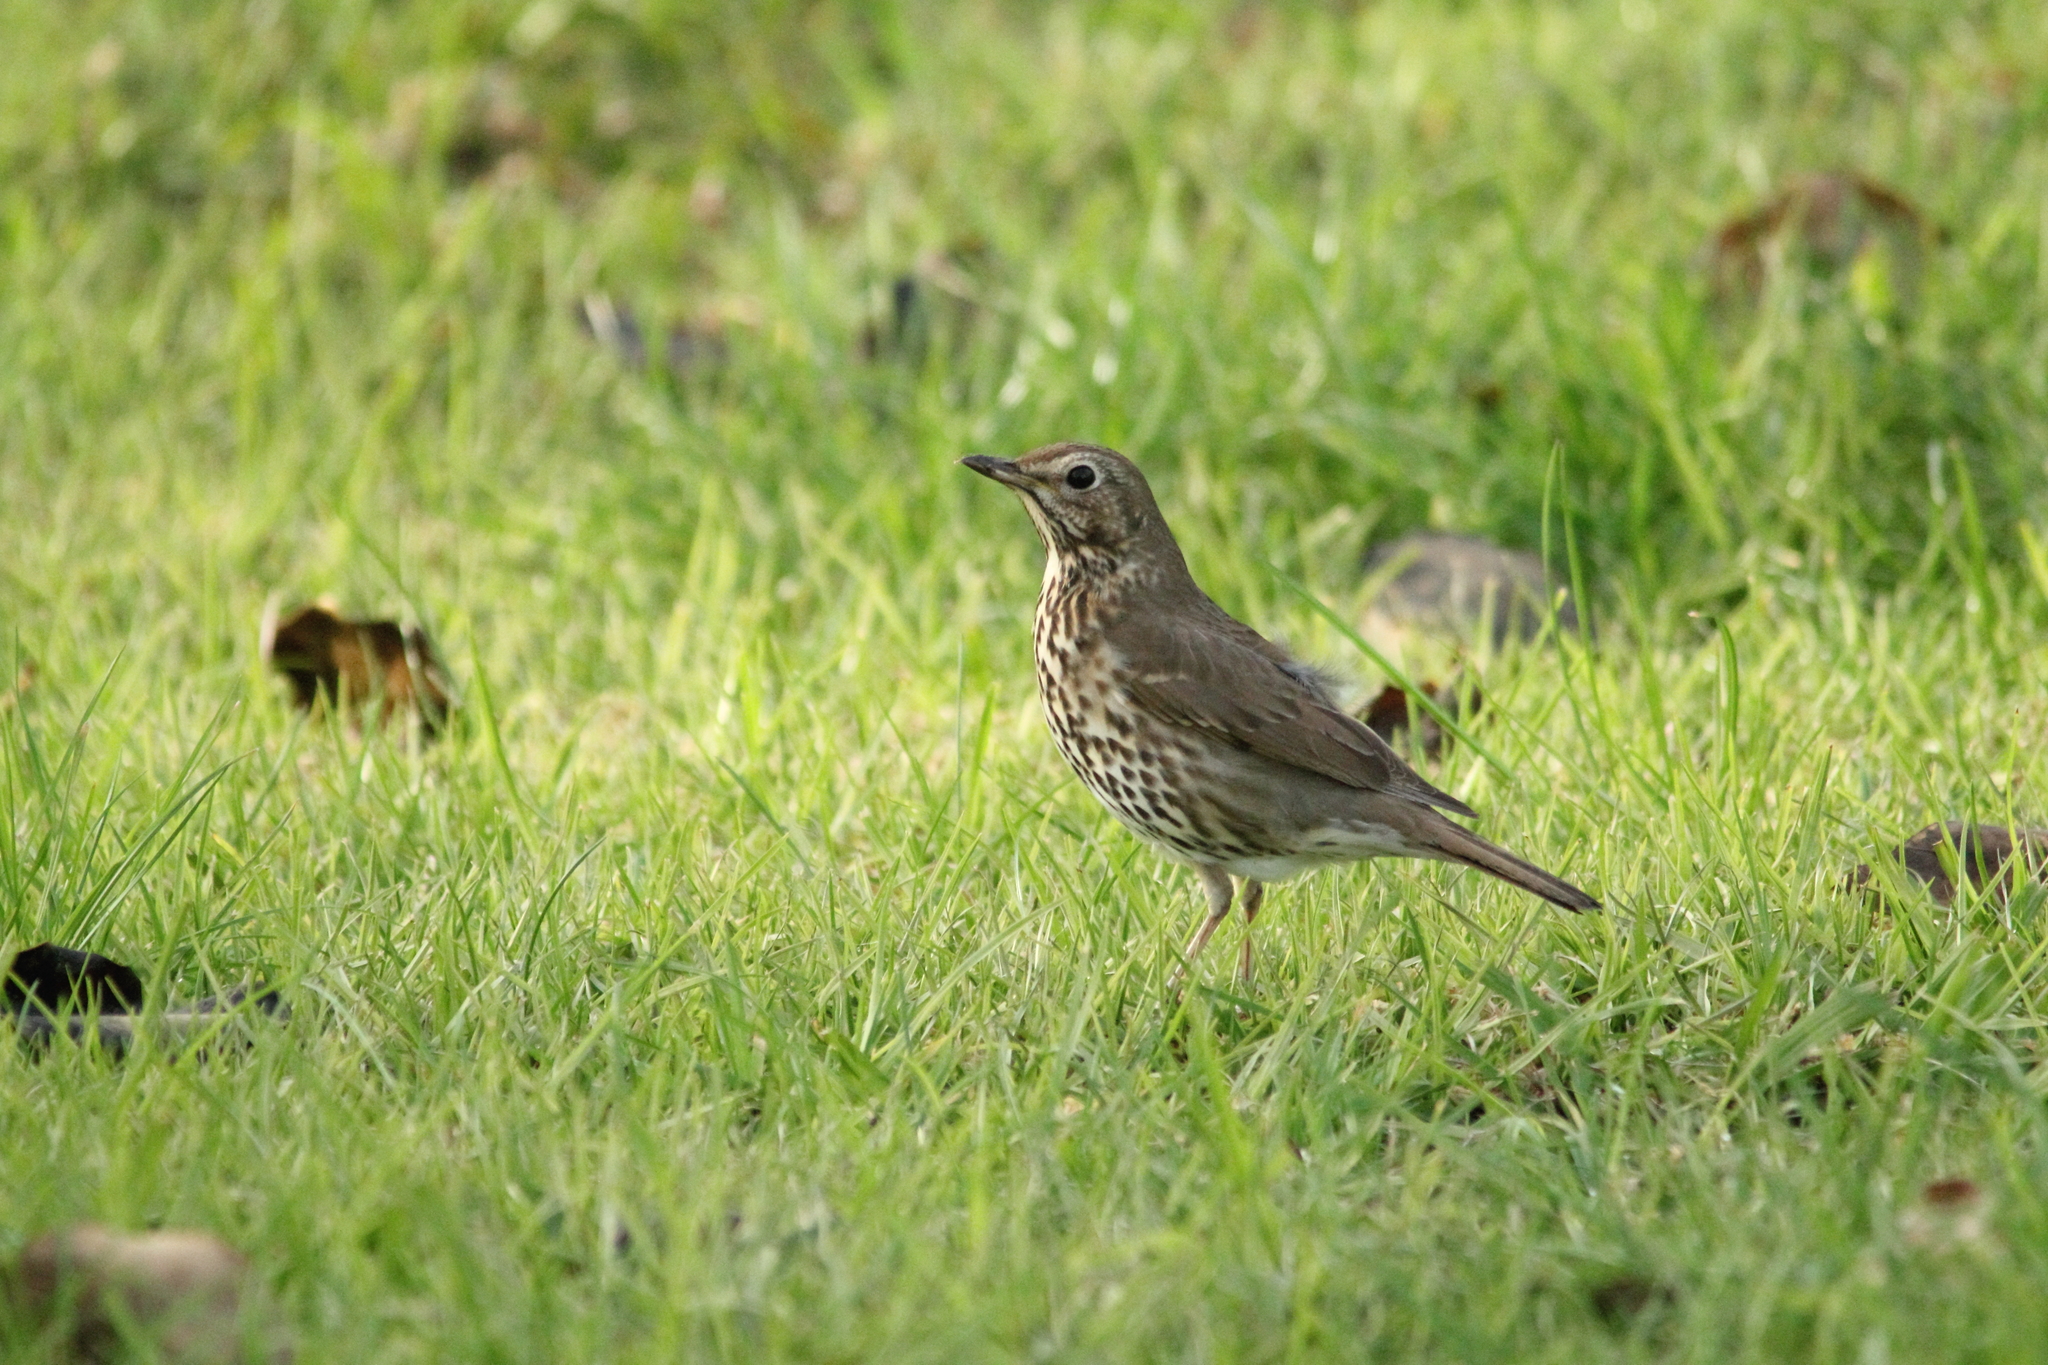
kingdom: Animalia
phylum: Chordata
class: Aves
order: Passeriformes
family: Turdidae
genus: Turdus
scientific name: Turdus philomelos
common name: Song thrush
